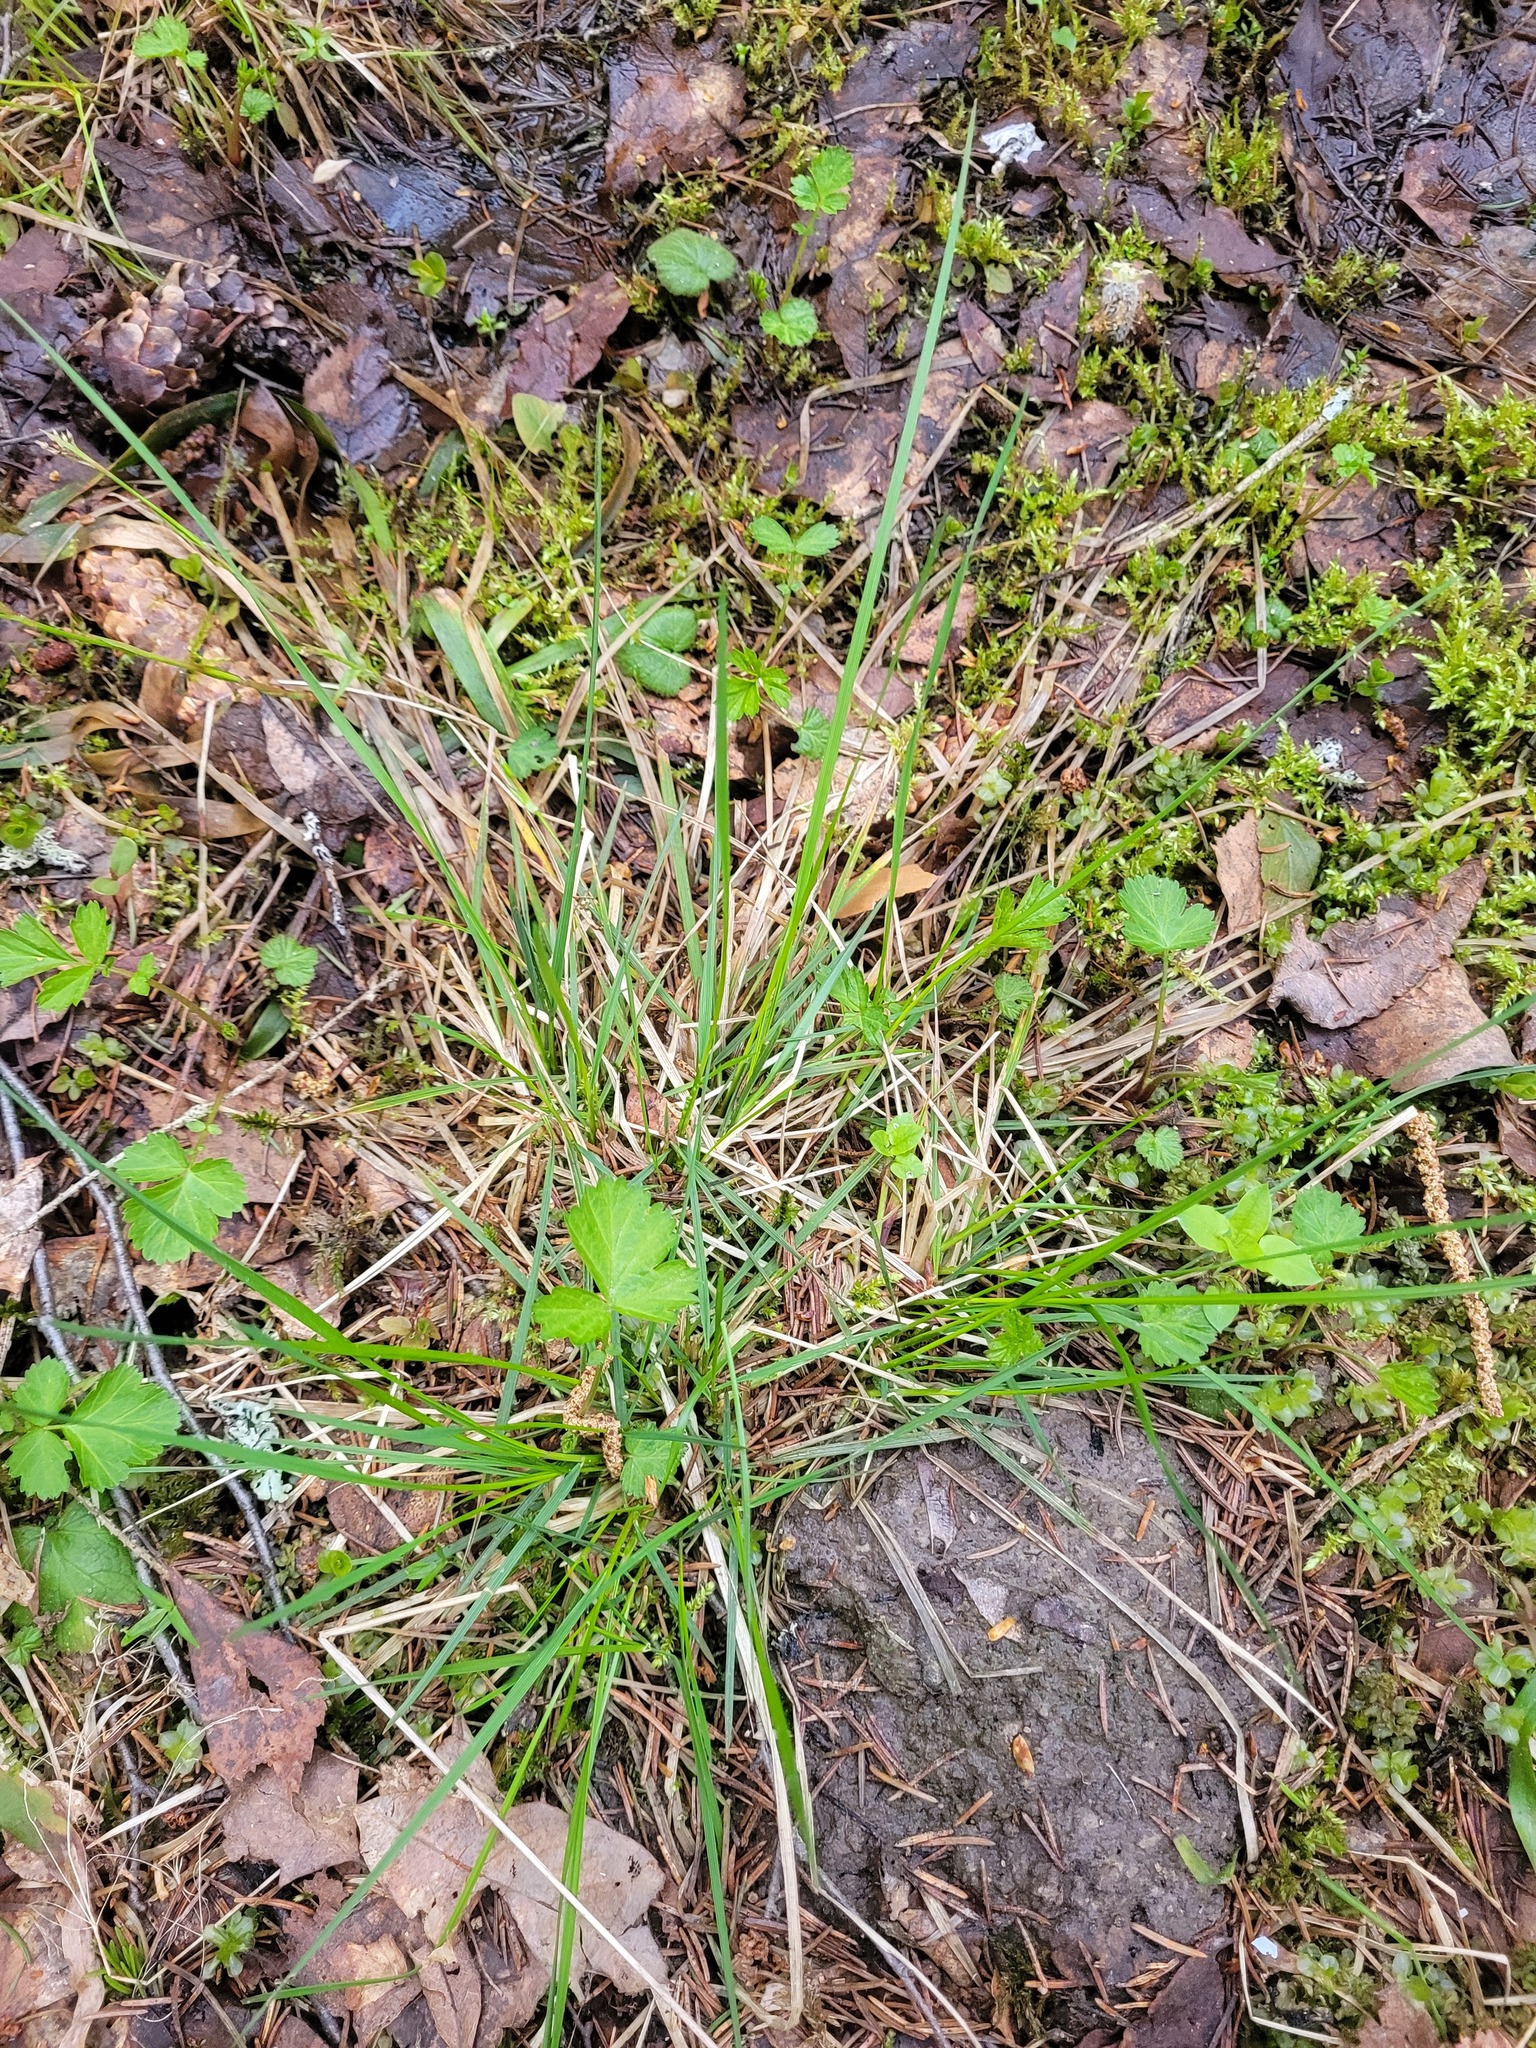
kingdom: Plantae
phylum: Tracheophyta
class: Liliopsida
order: Poales
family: Poaceae
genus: Deschampsia
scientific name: Deschampsia cespitosa
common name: Tufted hair-grass
